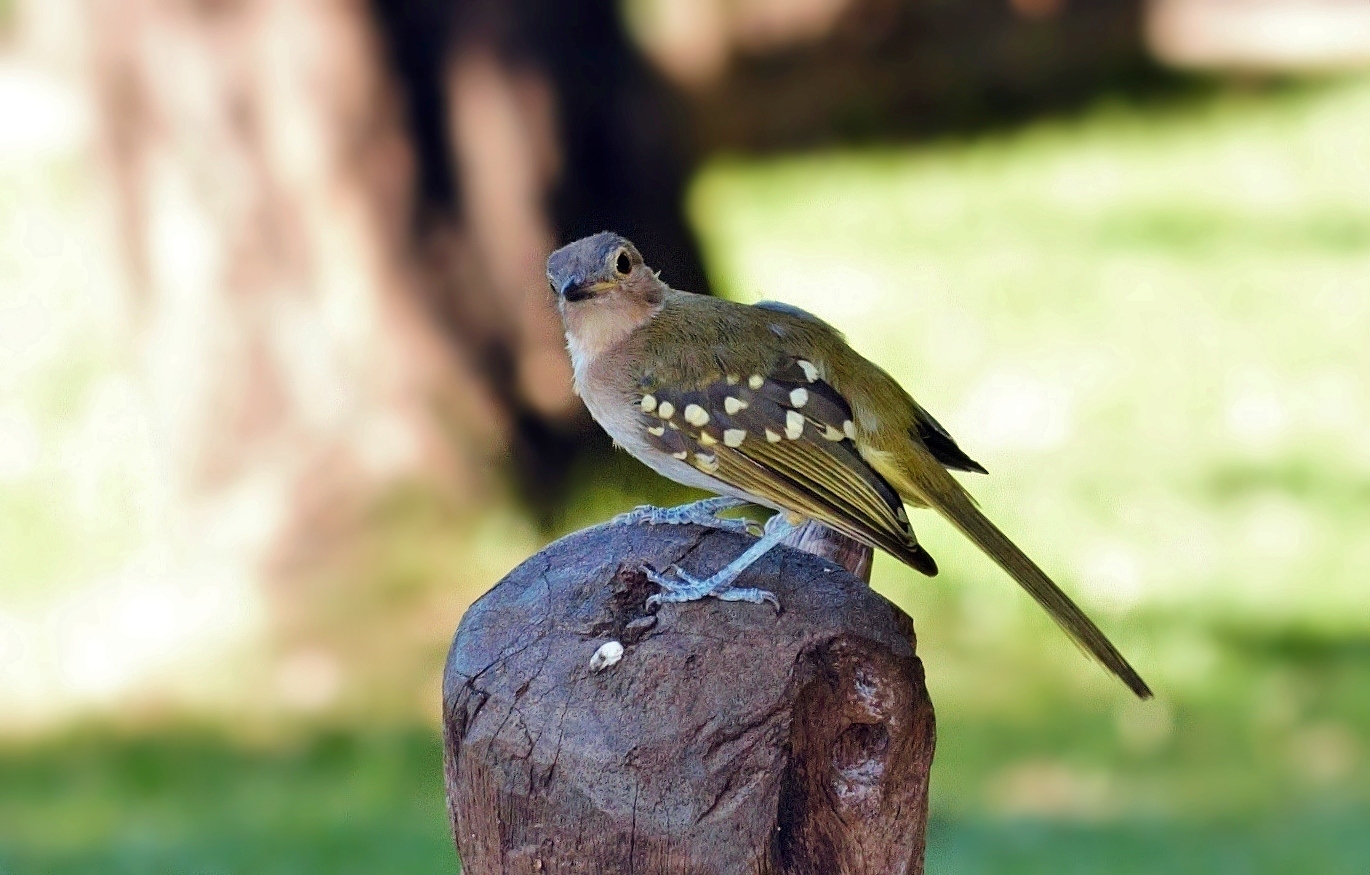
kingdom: Animalia
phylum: Chordata
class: Aves
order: Passeriformes
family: Nicatoridae
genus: Nicator
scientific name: Nicator gularis
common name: Eastern nicator
